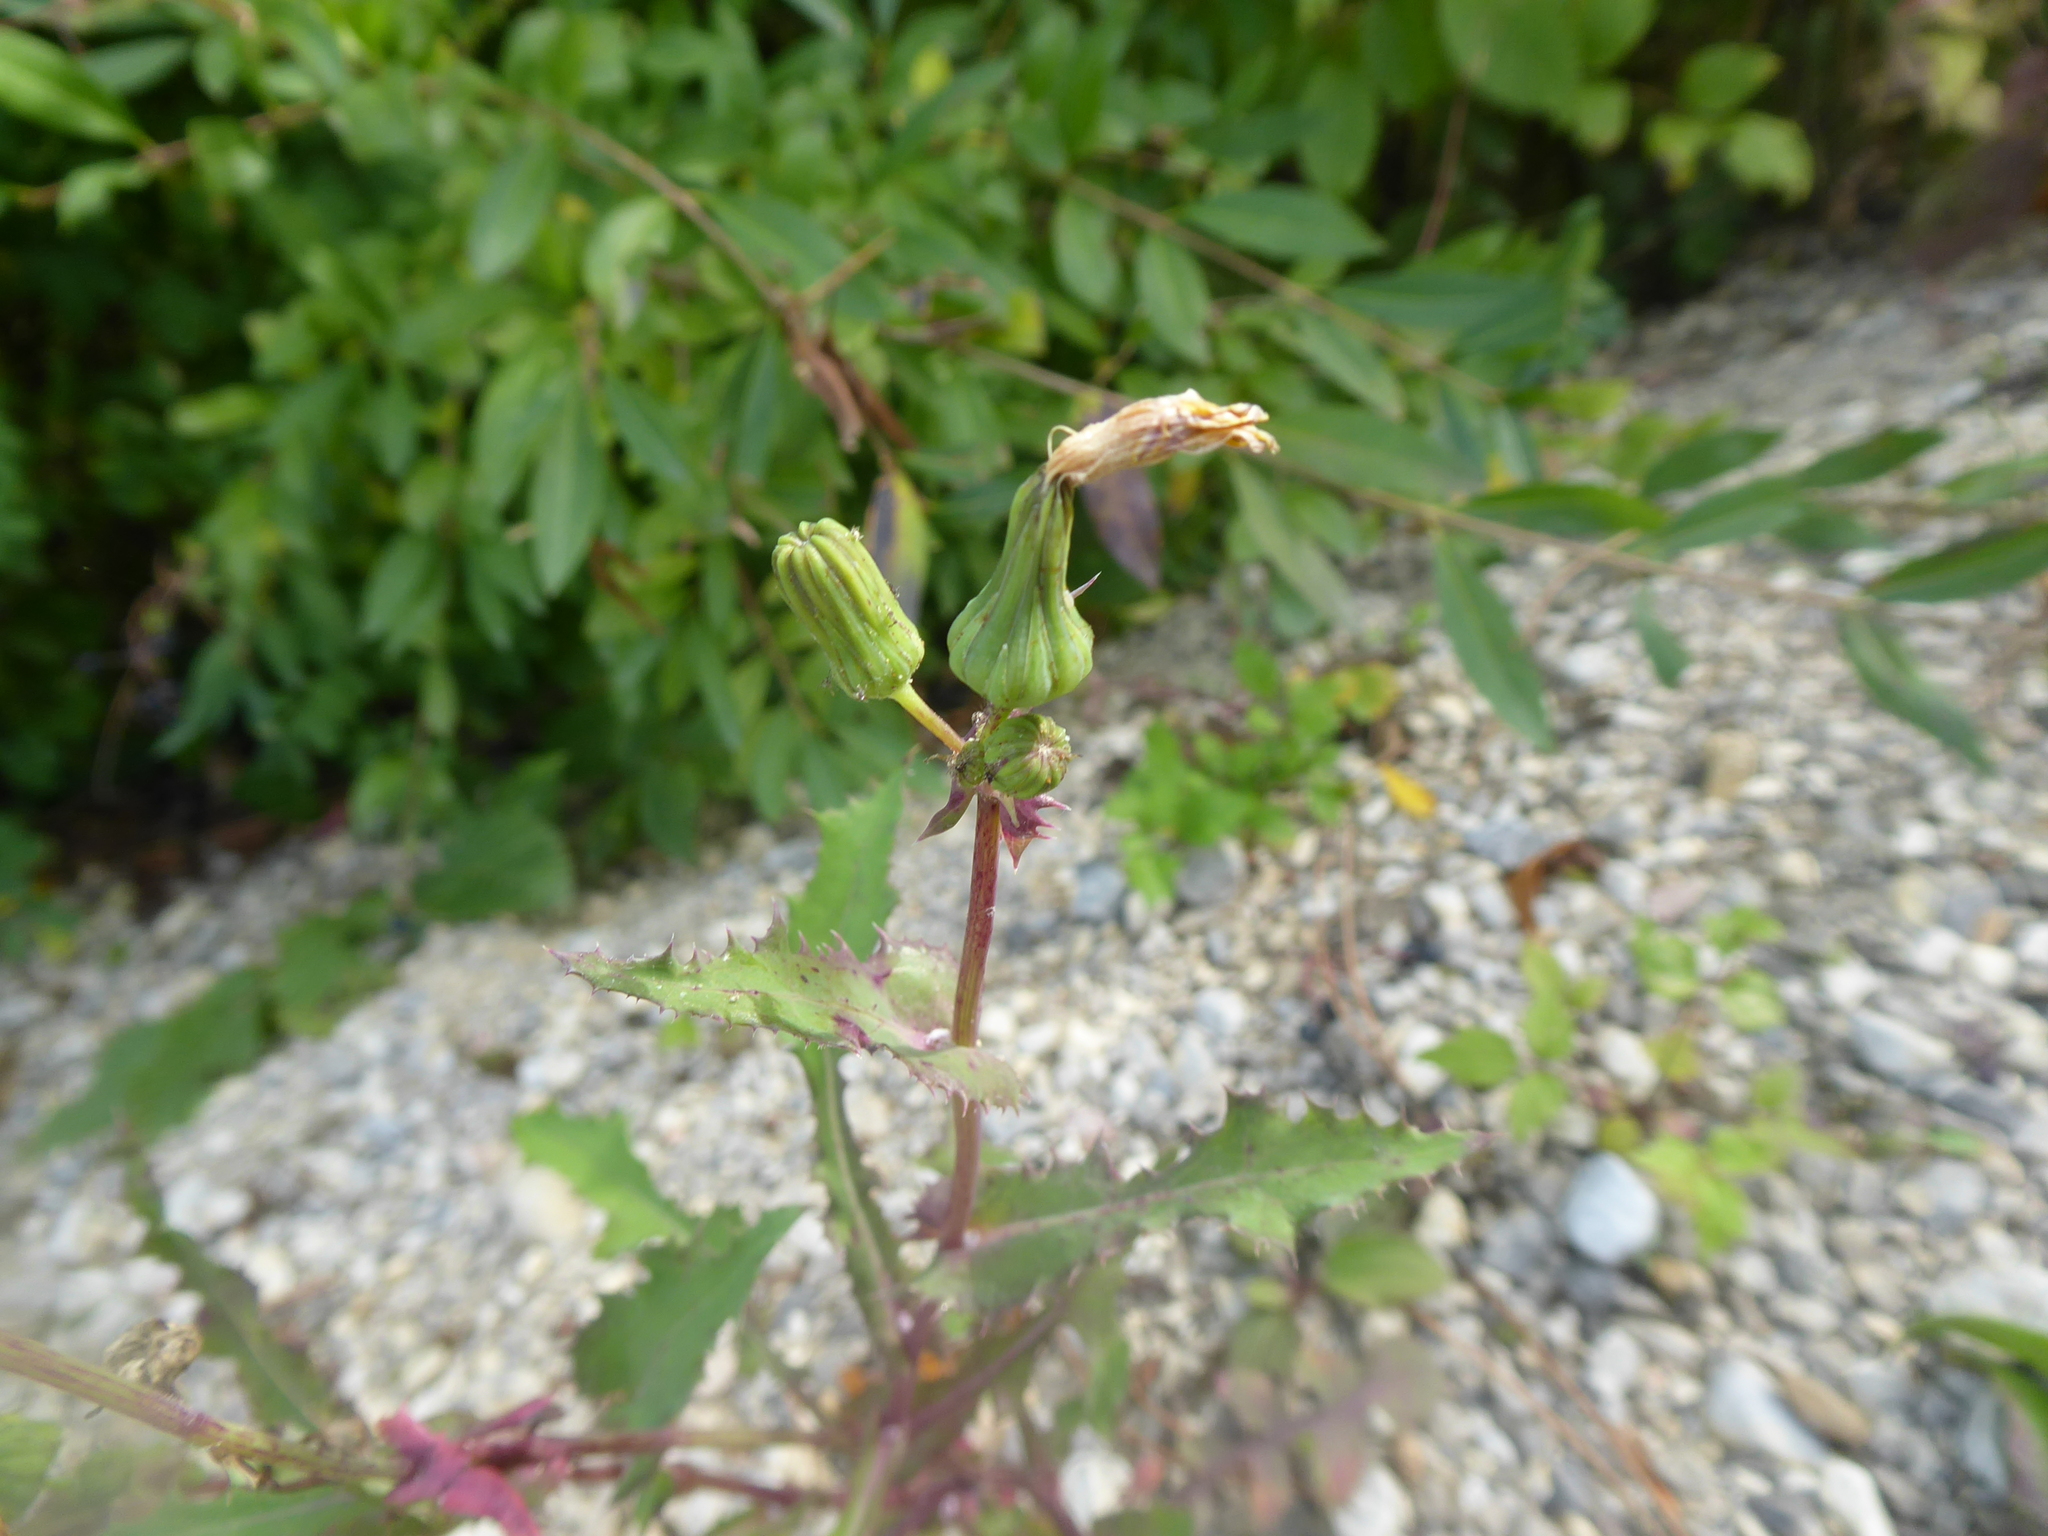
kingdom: Plantae
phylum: Tracheophyta
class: Magnoliopsida
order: Asterales
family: Asteraceae
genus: Sonchus
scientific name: Sonchus oleraceus
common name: Common sowthistle
